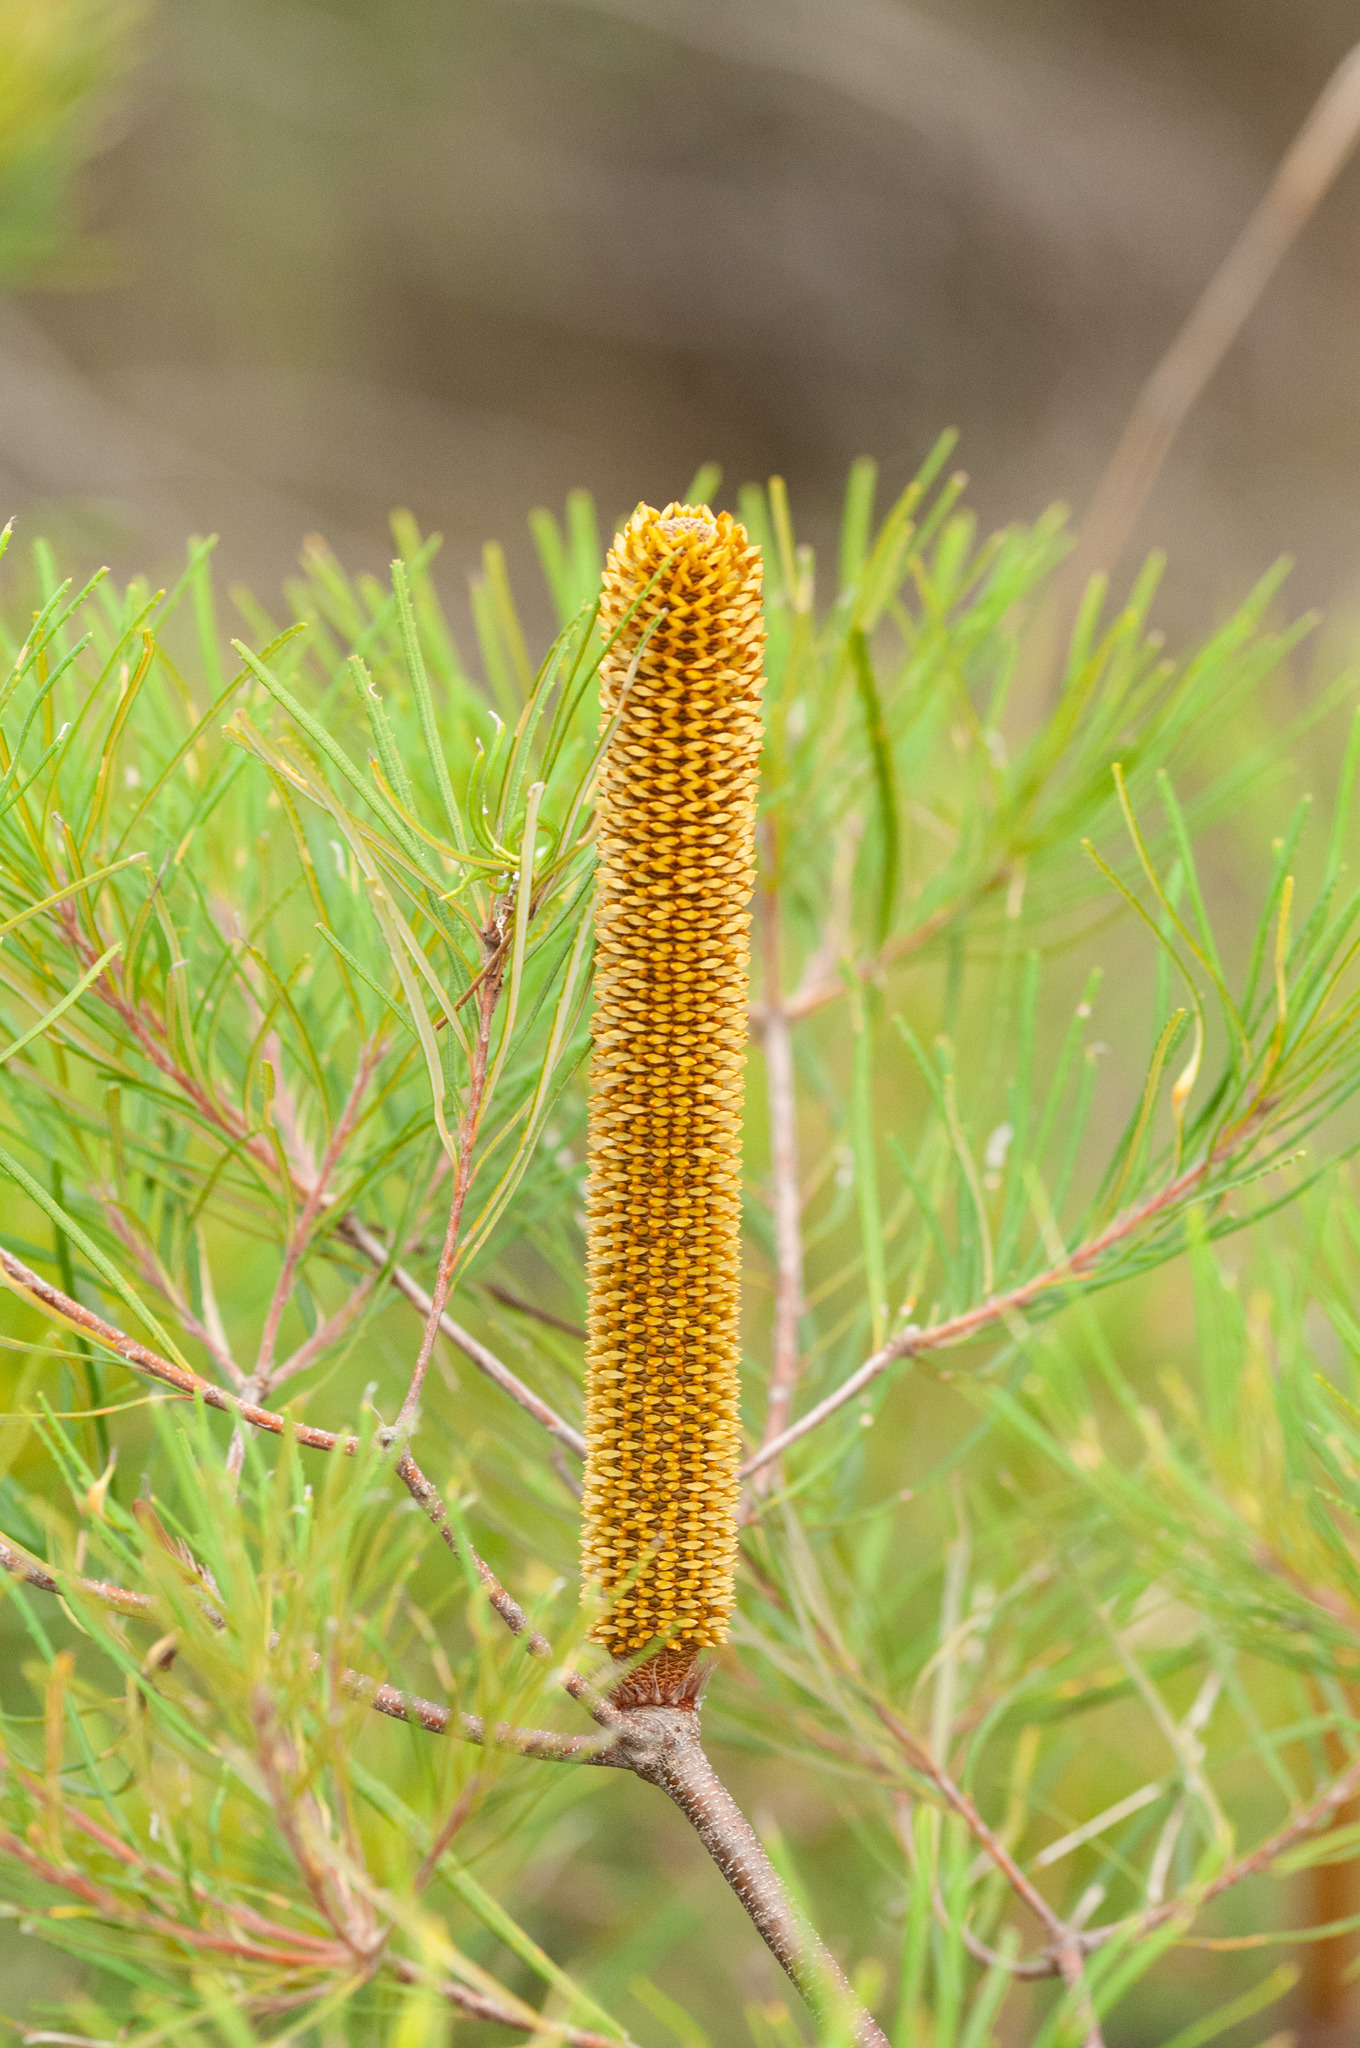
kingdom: Plantae
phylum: Tracheophyta
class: Magnoliopsida
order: Proteales
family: Proteaceae
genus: Banksia
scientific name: Banksia spinulosa
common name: Hairpin banksia
